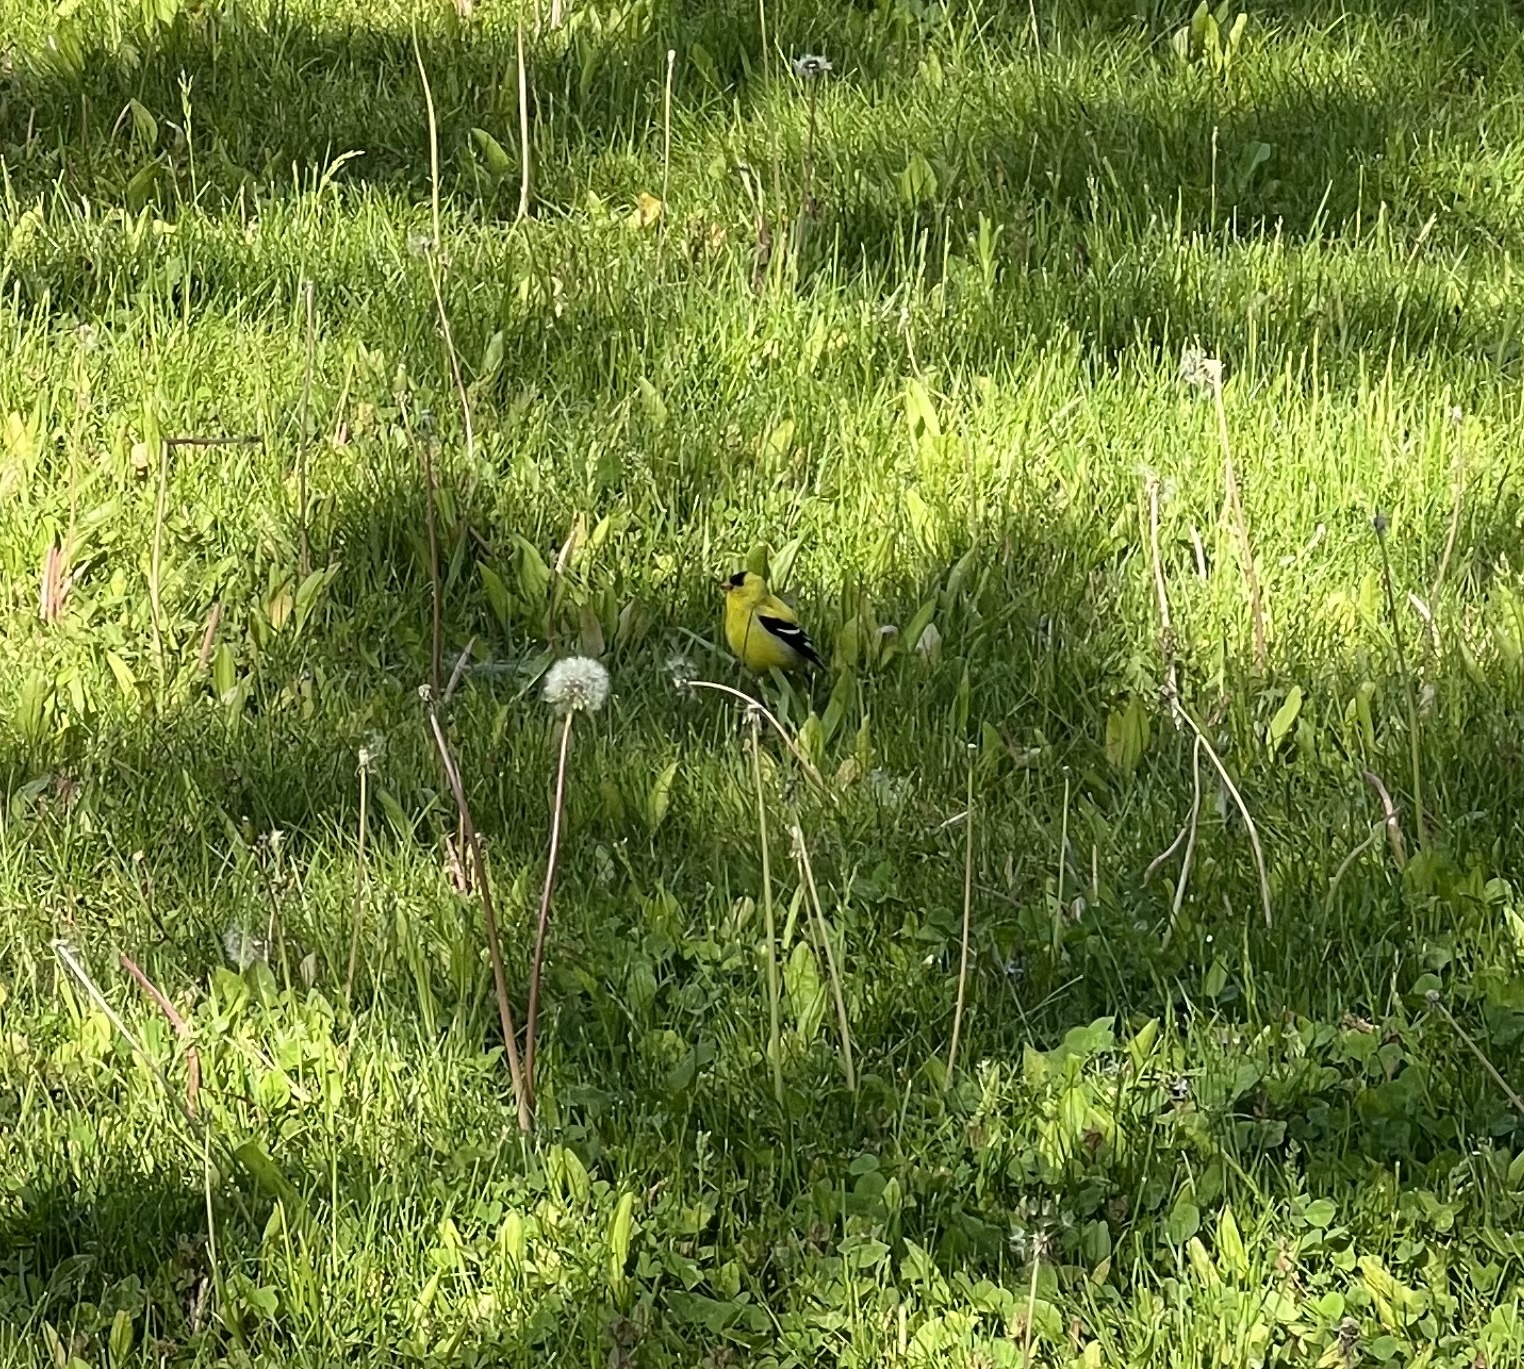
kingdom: Animalia
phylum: Chordata
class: Aves
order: Passeriformes
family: Fringillidae
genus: Spinus
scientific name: Spinus tristis
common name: American goldfinch
